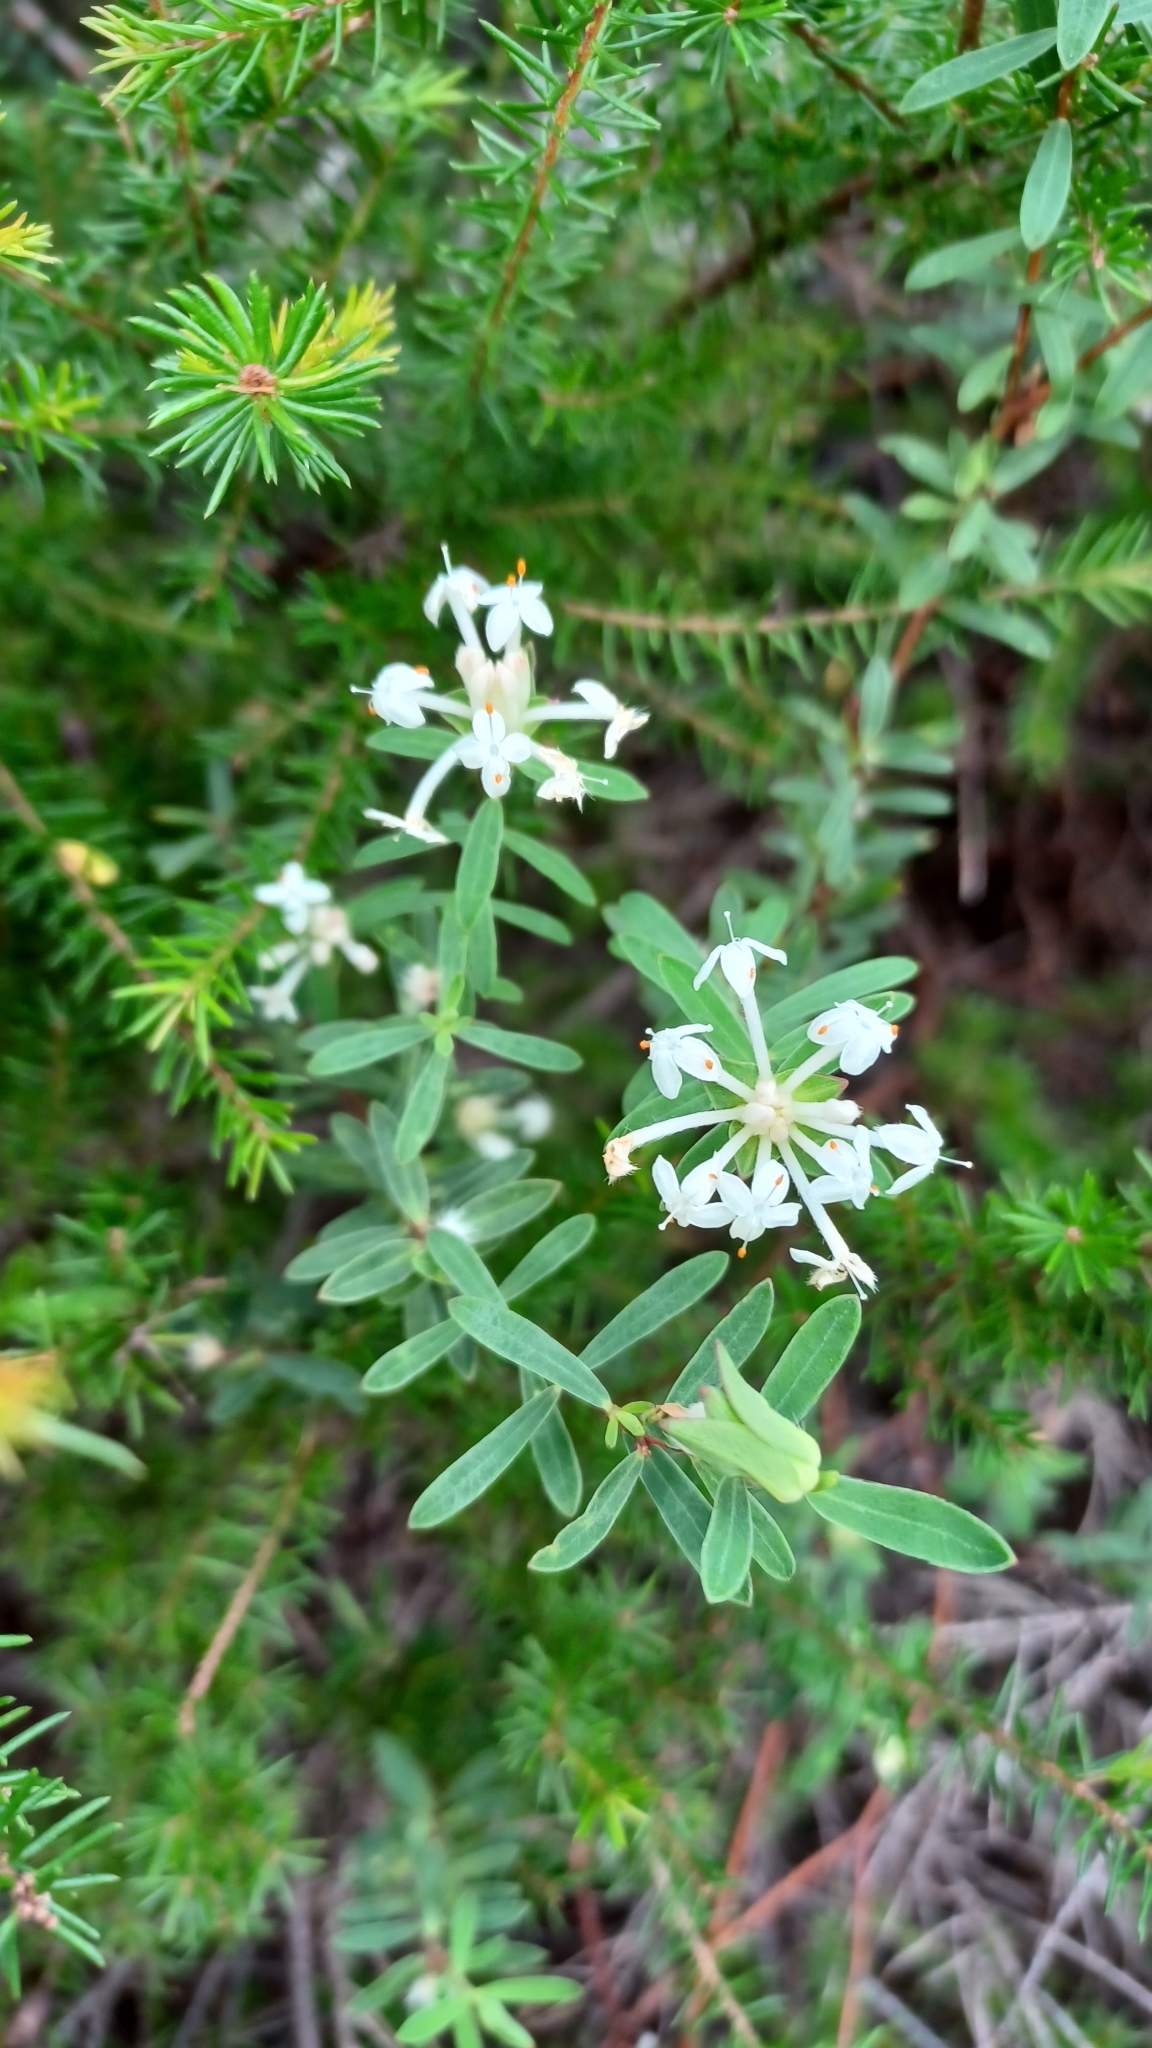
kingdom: Plantae
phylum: Tracheophyta
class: Magnoliopsida
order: Malvales
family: Thymelaeaceae
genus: Pimelea
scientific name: Pimelea linifolia
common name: Queen-of-the-bush
